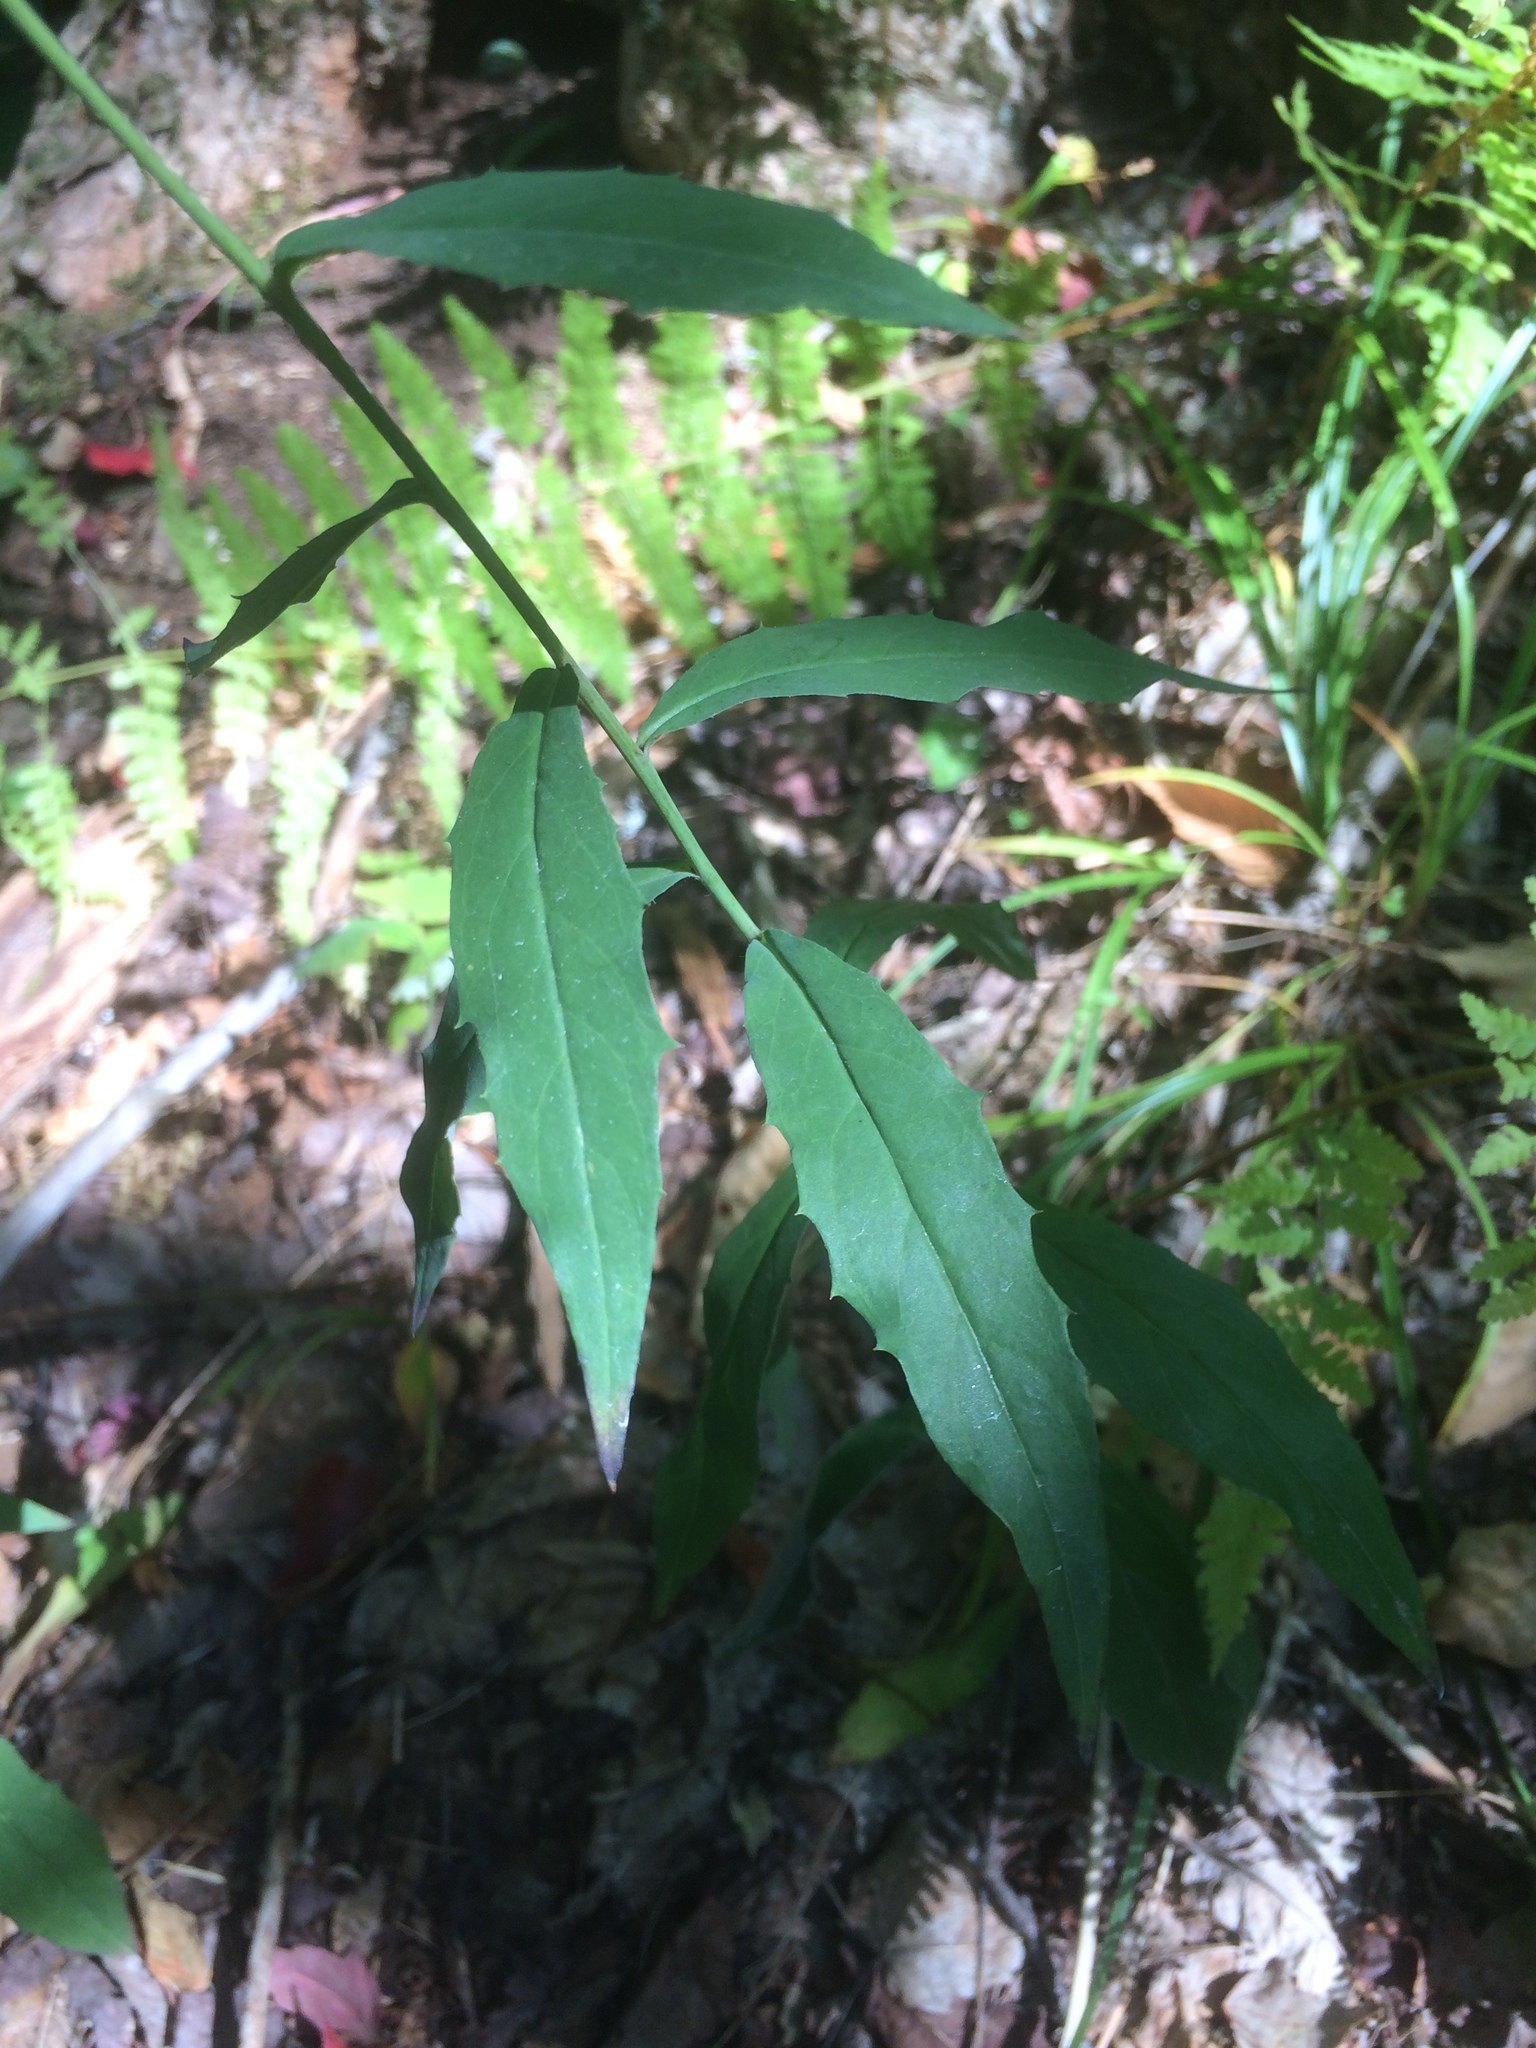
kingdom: Plantae
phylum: Tracheophyta
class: Magnoliopsida
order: Asterales
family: Asteraceae
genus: Hieracium
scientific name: Hieracium paniculatum
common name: Allegheny hawkweed
